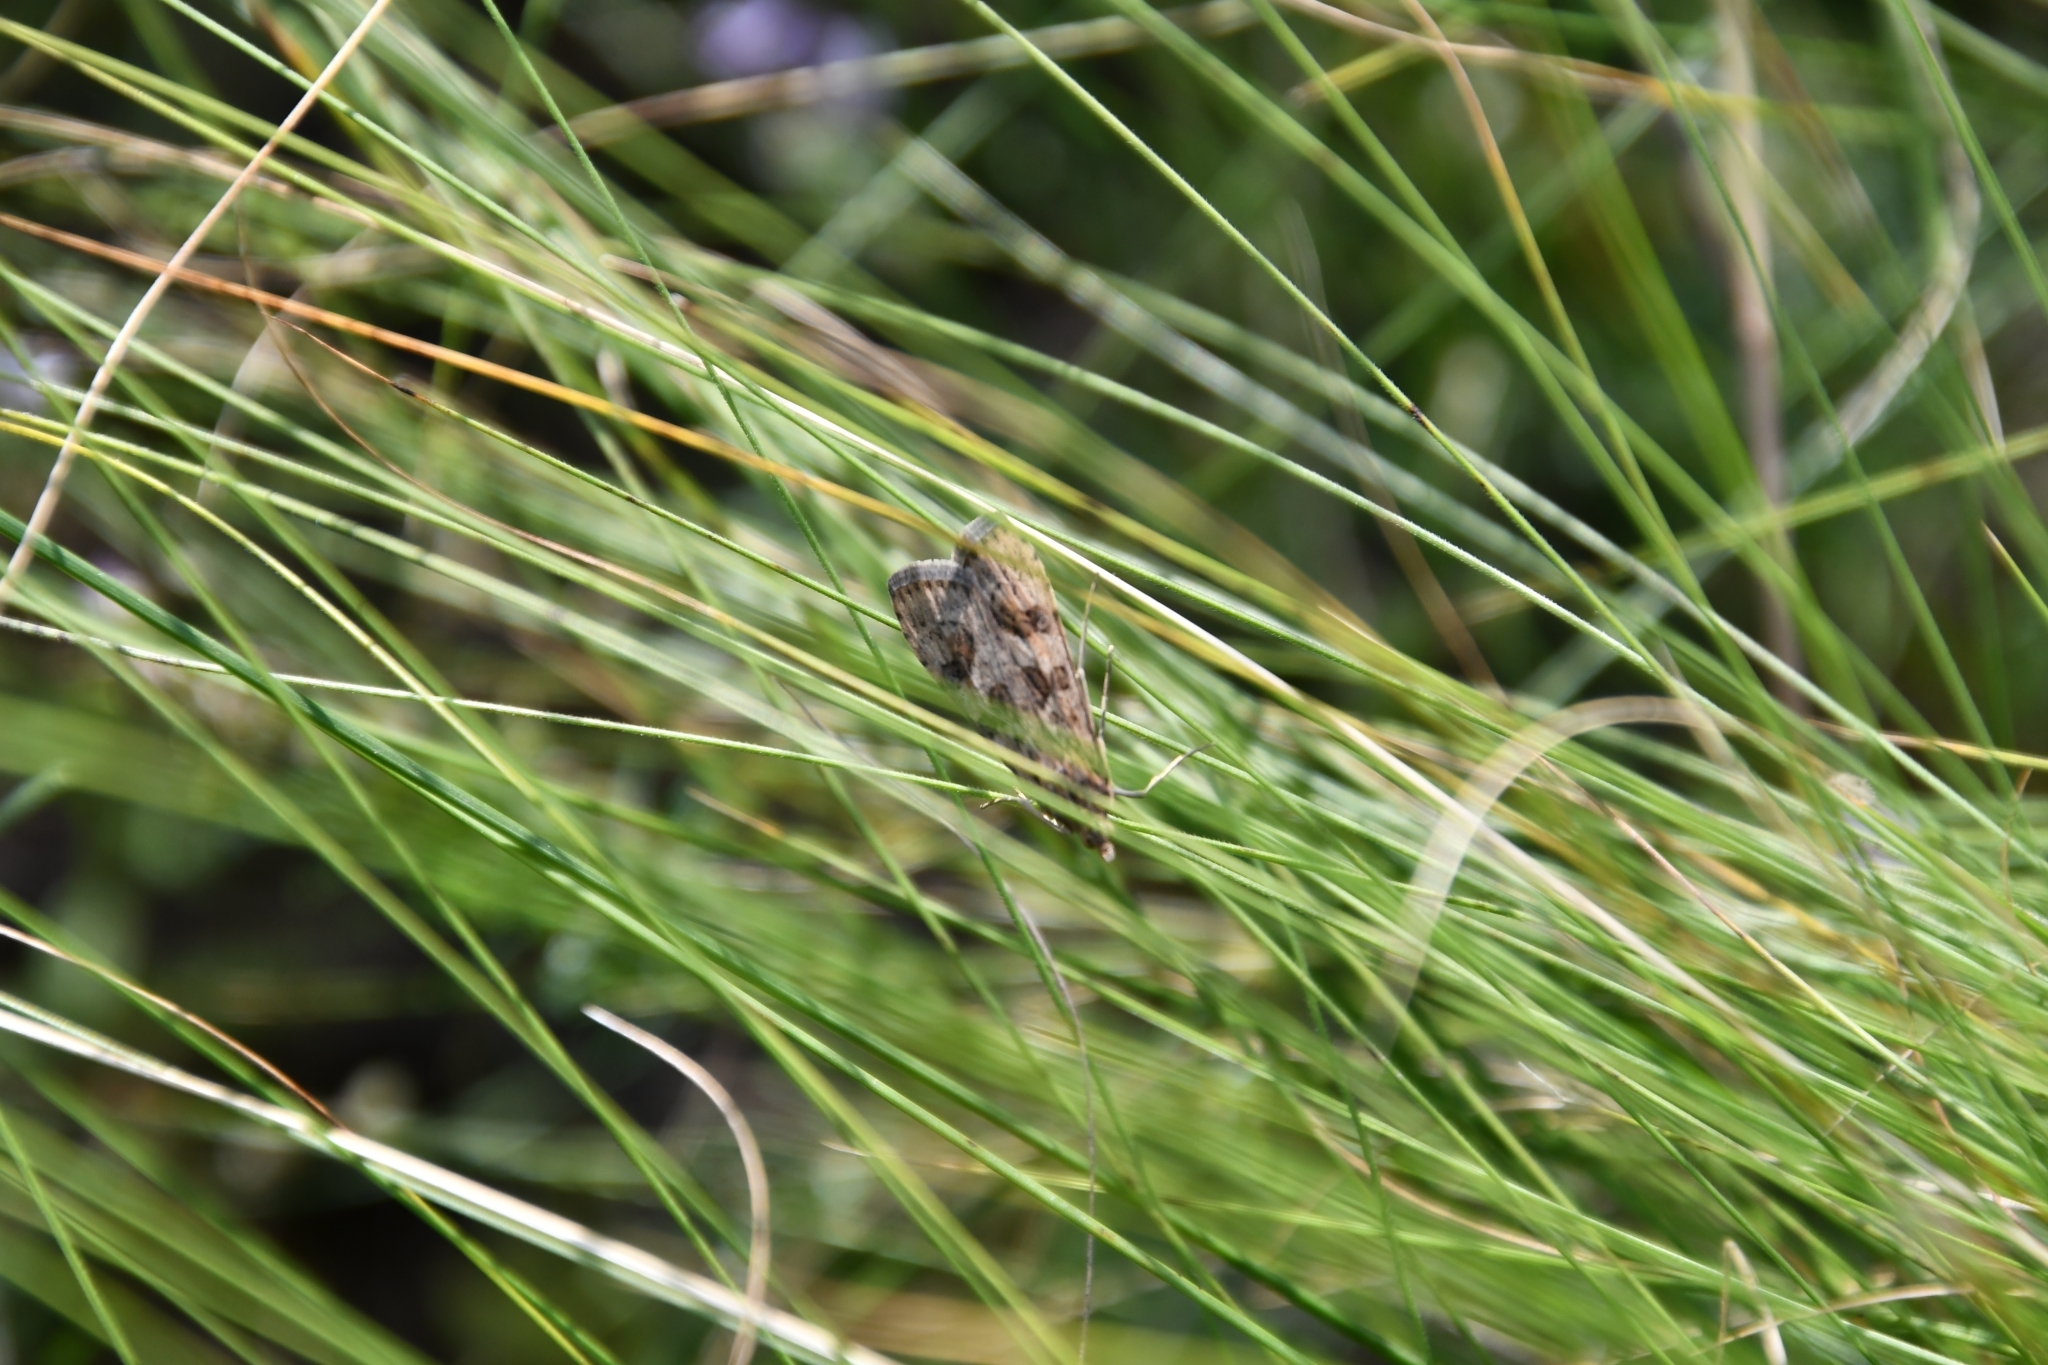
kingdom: Animalia
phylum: Arthropoda
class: Insecta
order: Lepidoptera
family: Crambidae
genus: Nomophila
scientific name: Nomophila noctuella
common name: Rush veneer
